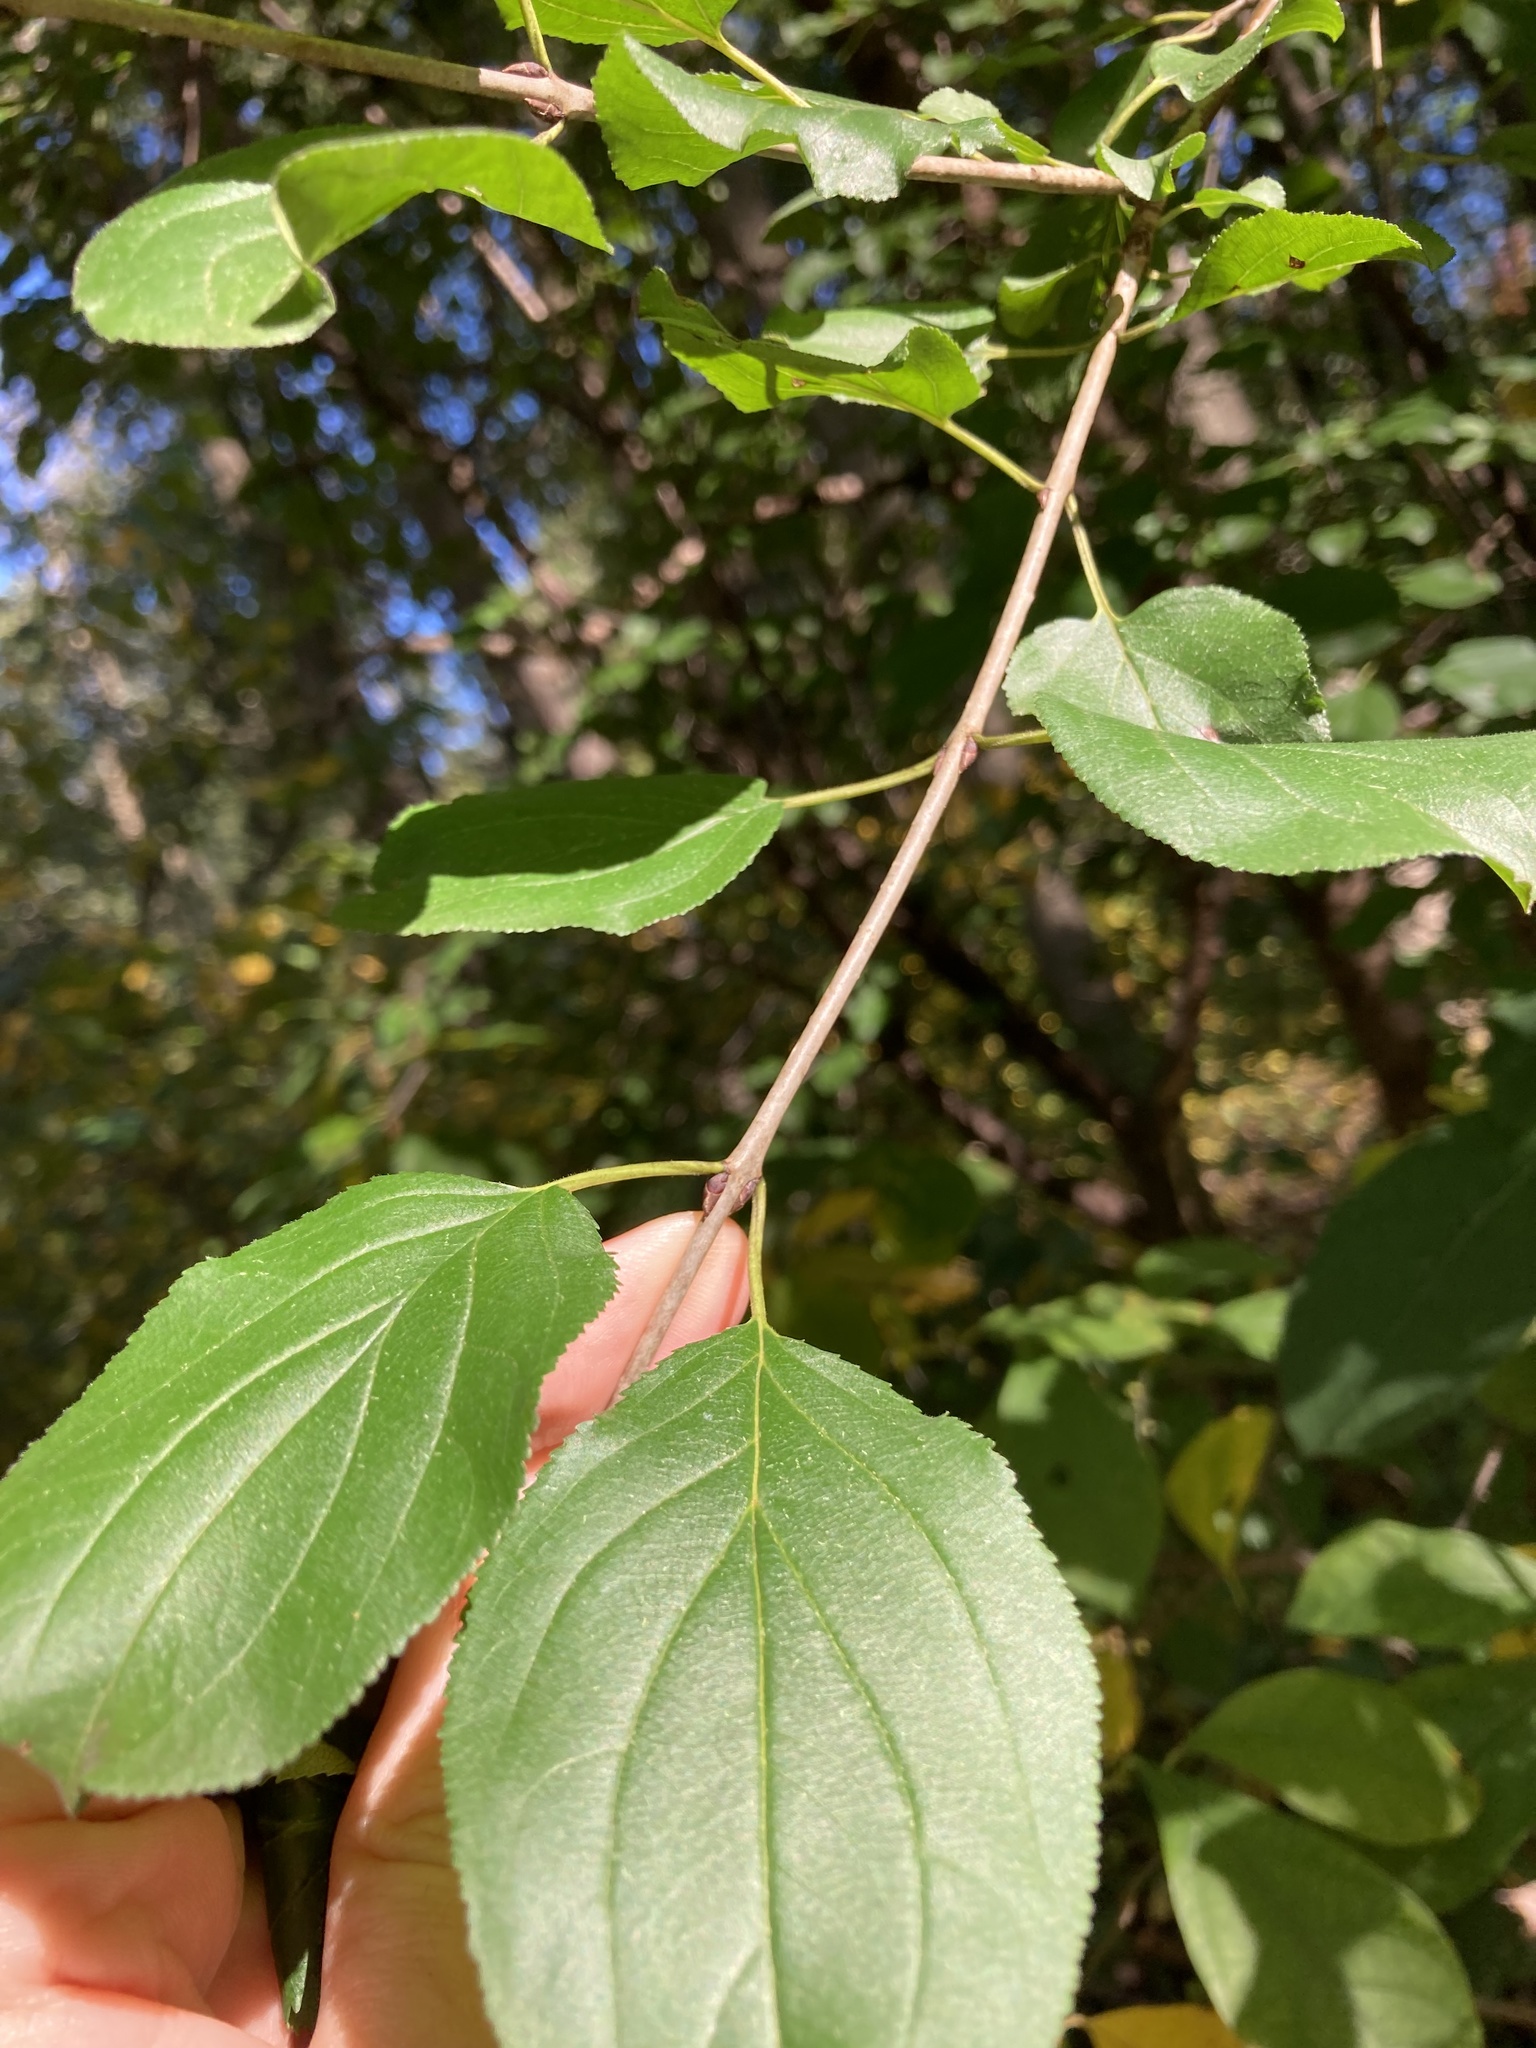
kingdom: Plantae
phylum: Tracheophyta
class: Magnoliopsida
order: Rosales
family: Rhamnaceae
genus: Rhamnus
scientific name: Rhamnus cathartica
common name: Common buckthorn
